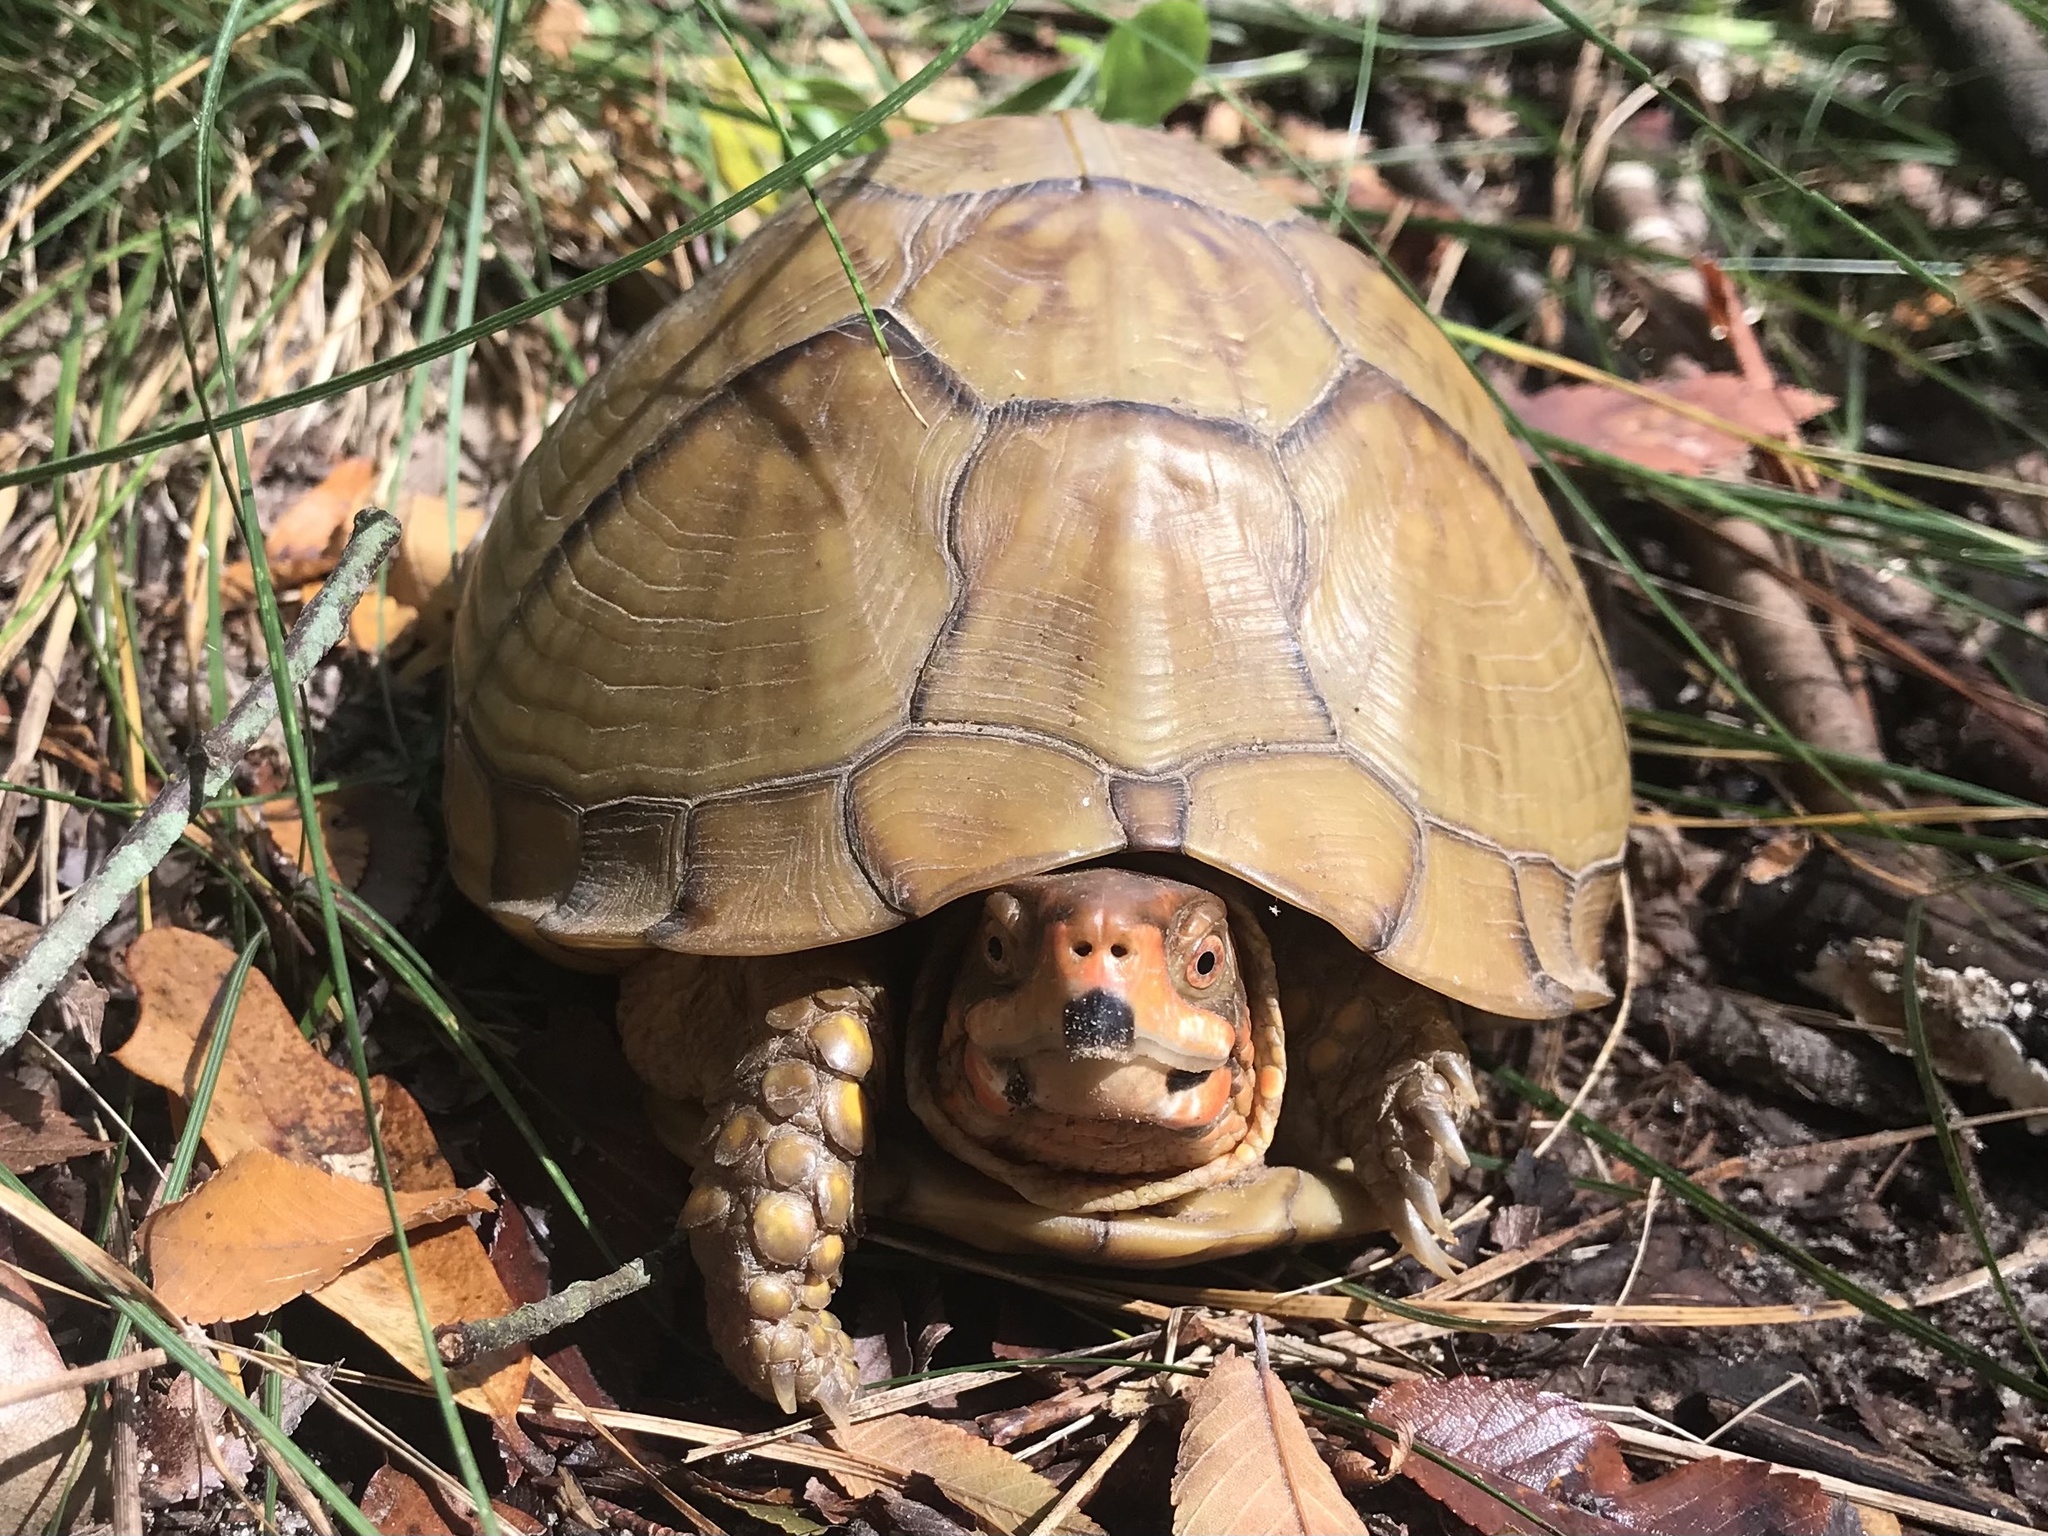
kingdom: Animalia
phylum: Chordata
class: Testudines
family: Emydidae
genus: Terrapene
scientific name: Terrapene carolina
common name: Common box turtle
